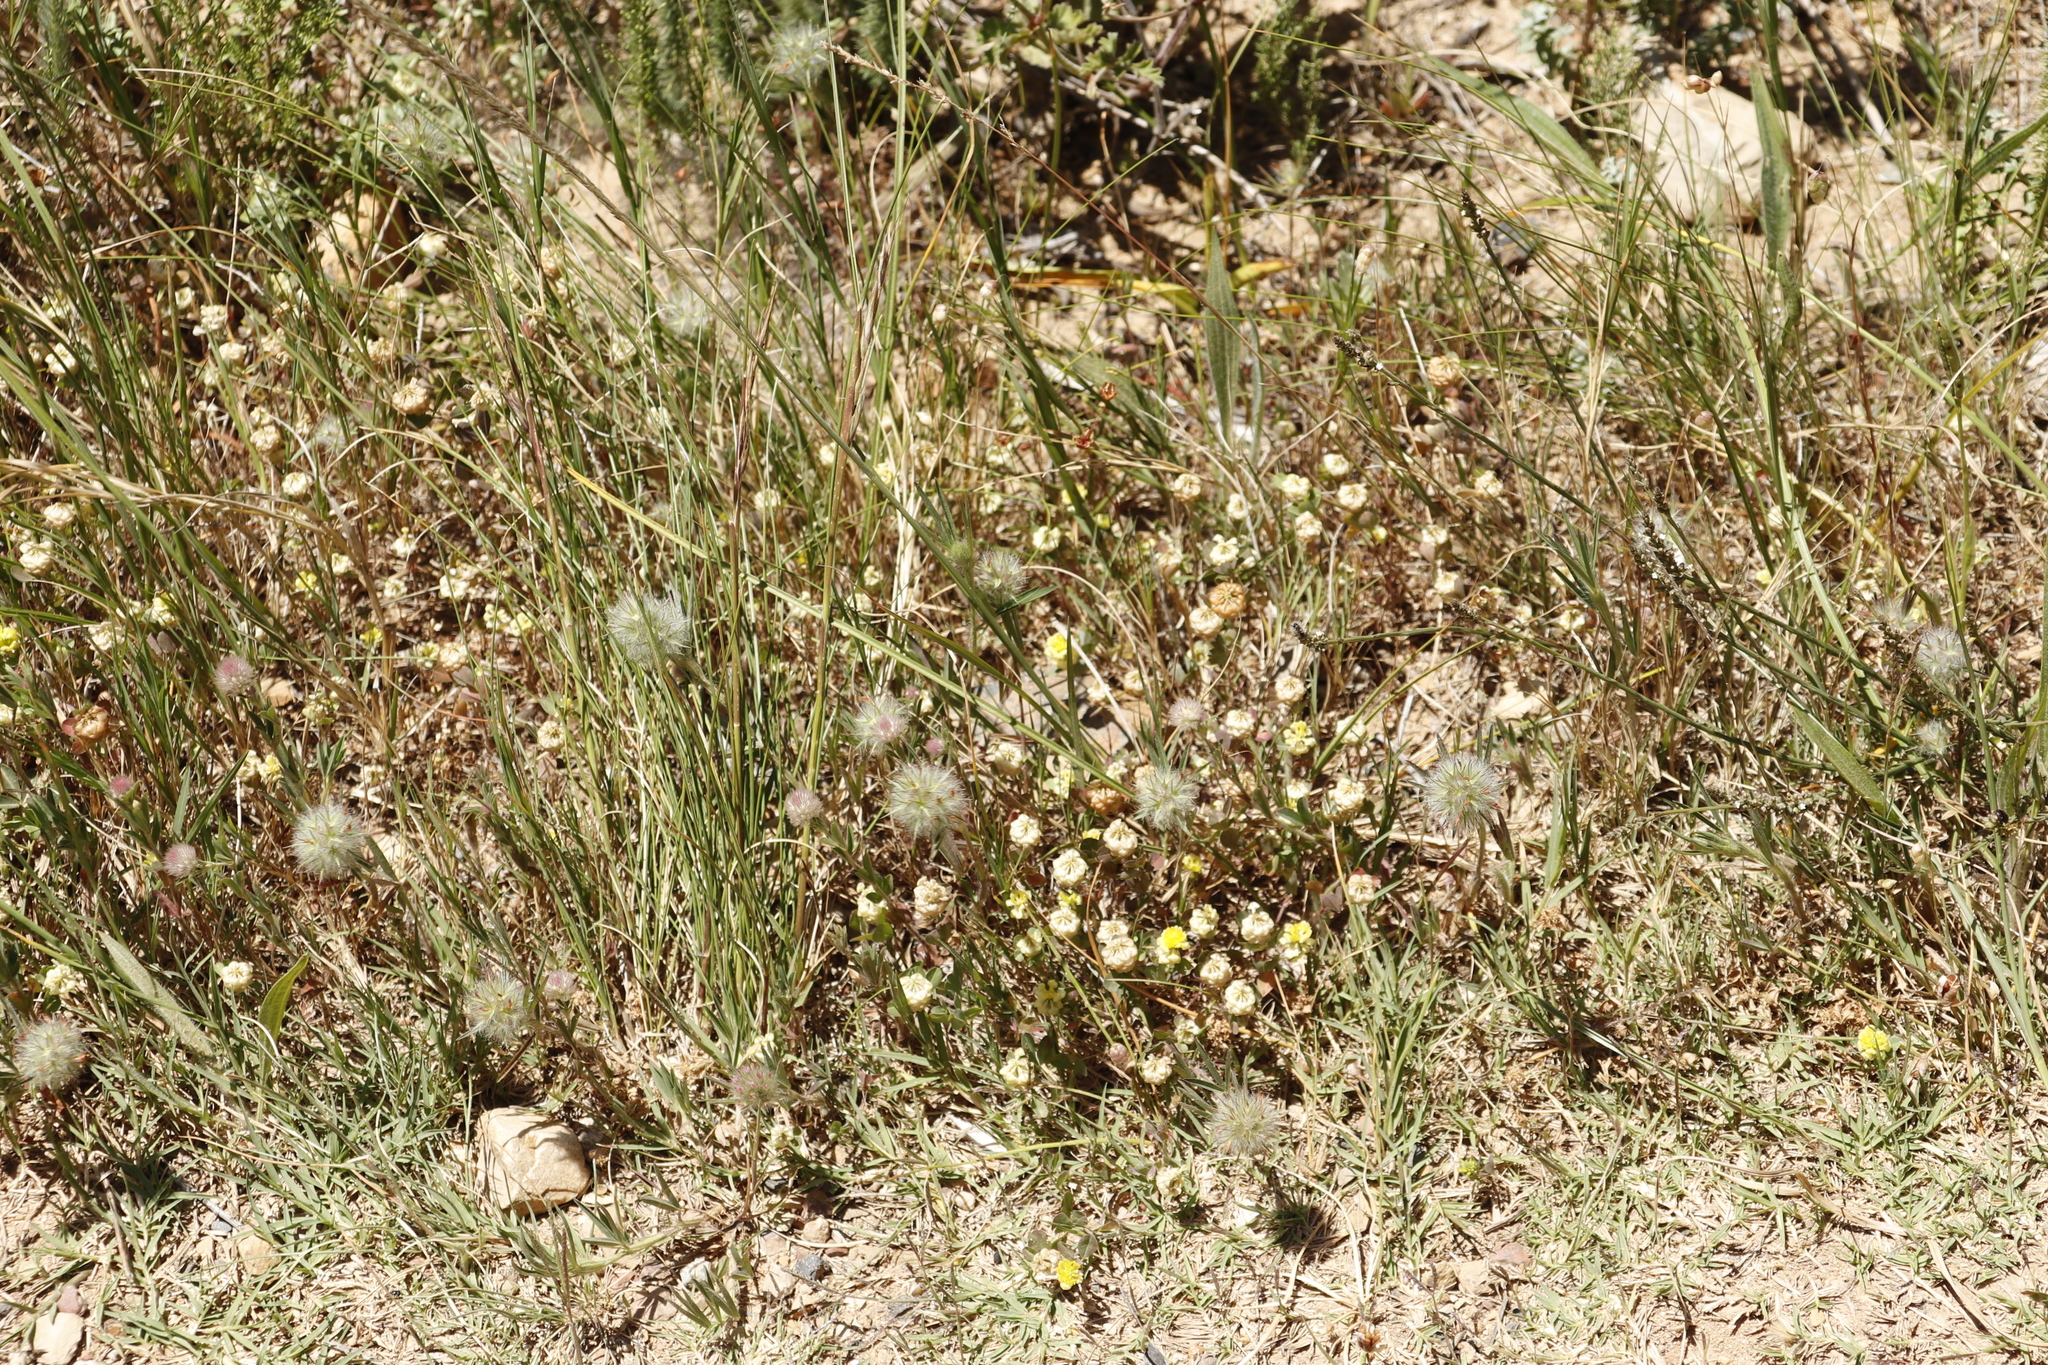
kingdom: Plantae
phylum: Tracheophyta
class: Magnoliopsida
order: Fabales
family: Fabaceae
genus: Trifolium
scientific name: Trifolium campestre
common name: Field clover
